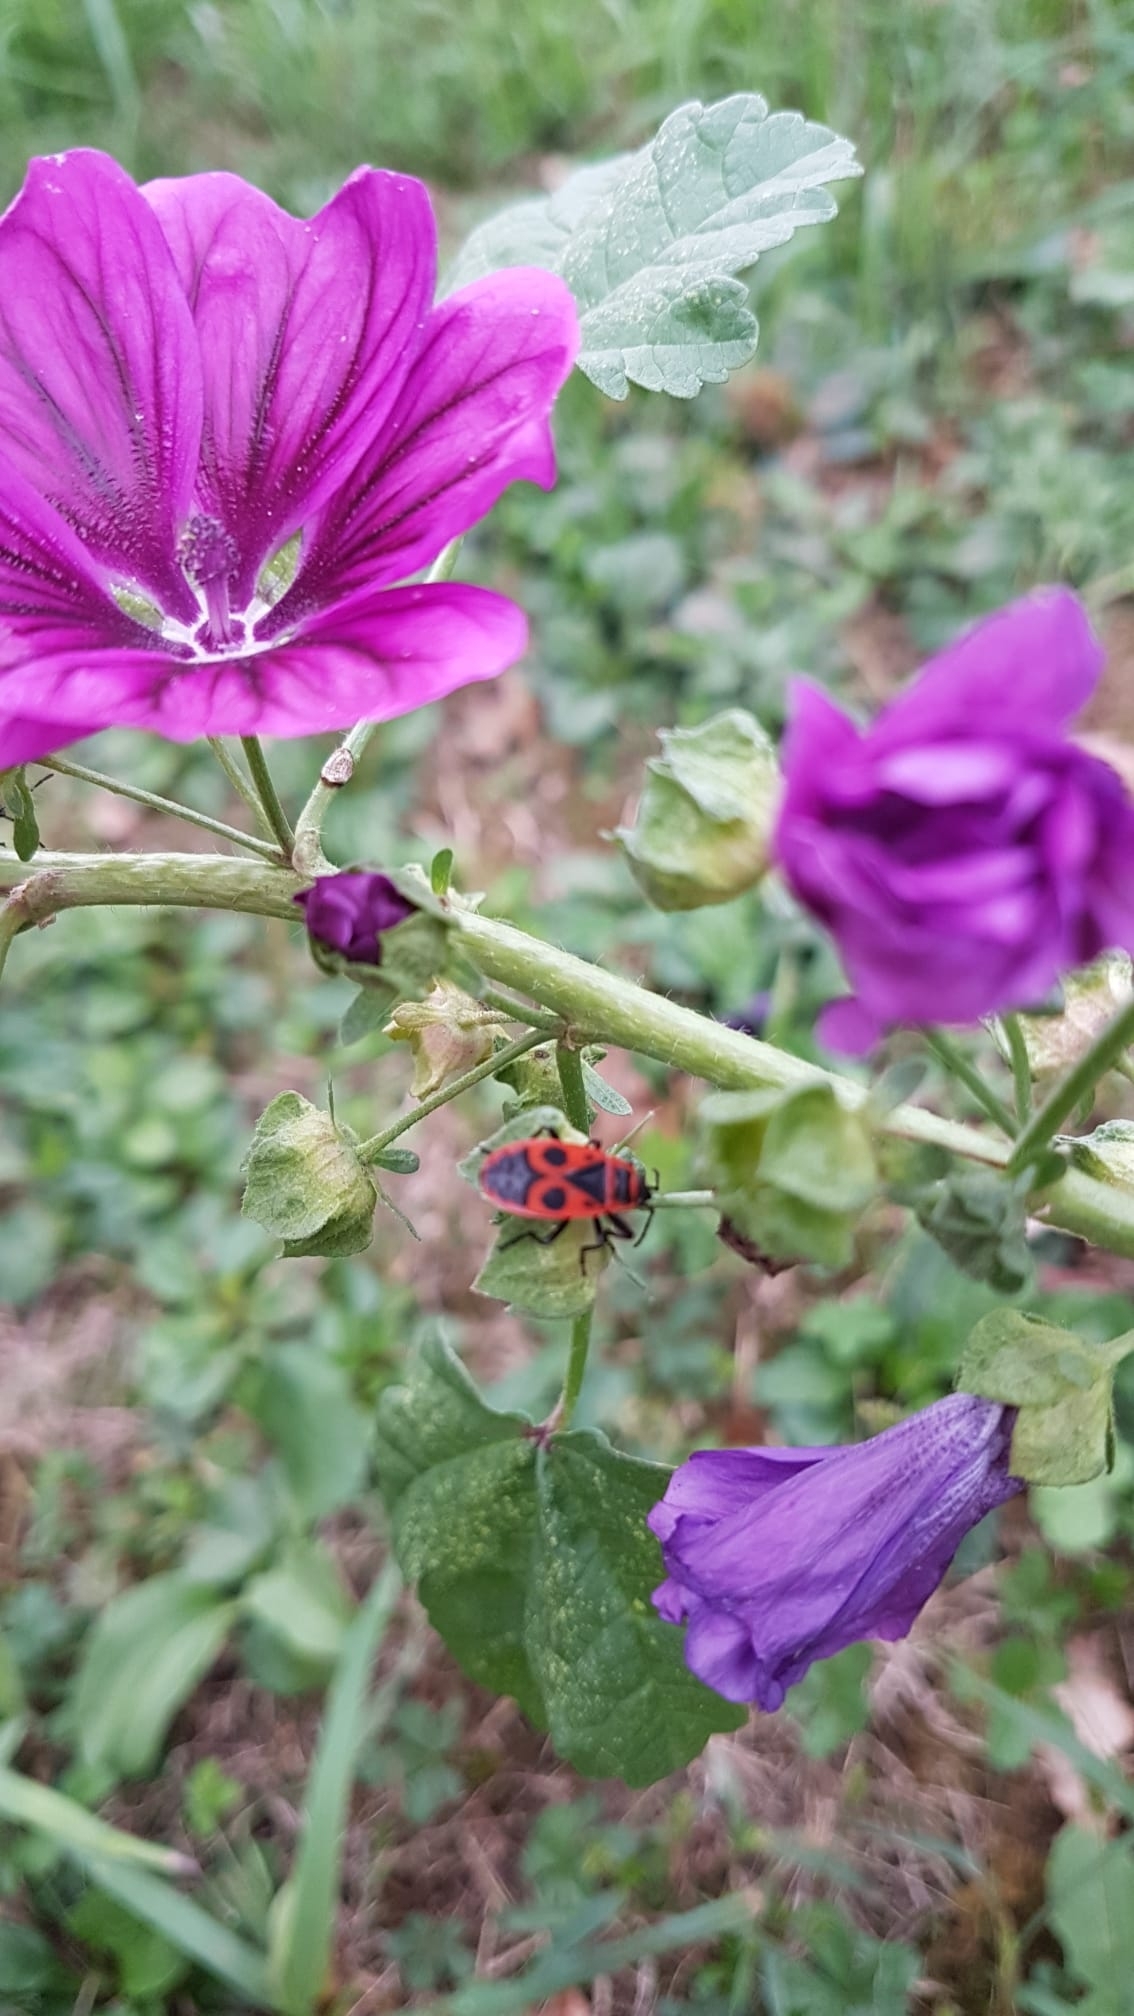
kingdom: Plantae
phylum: Tracheophyta
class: Magnoliopsida
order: Malvales
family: Malvaceae
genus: Malva
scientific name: Malva sylvestris
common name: Common mallow
